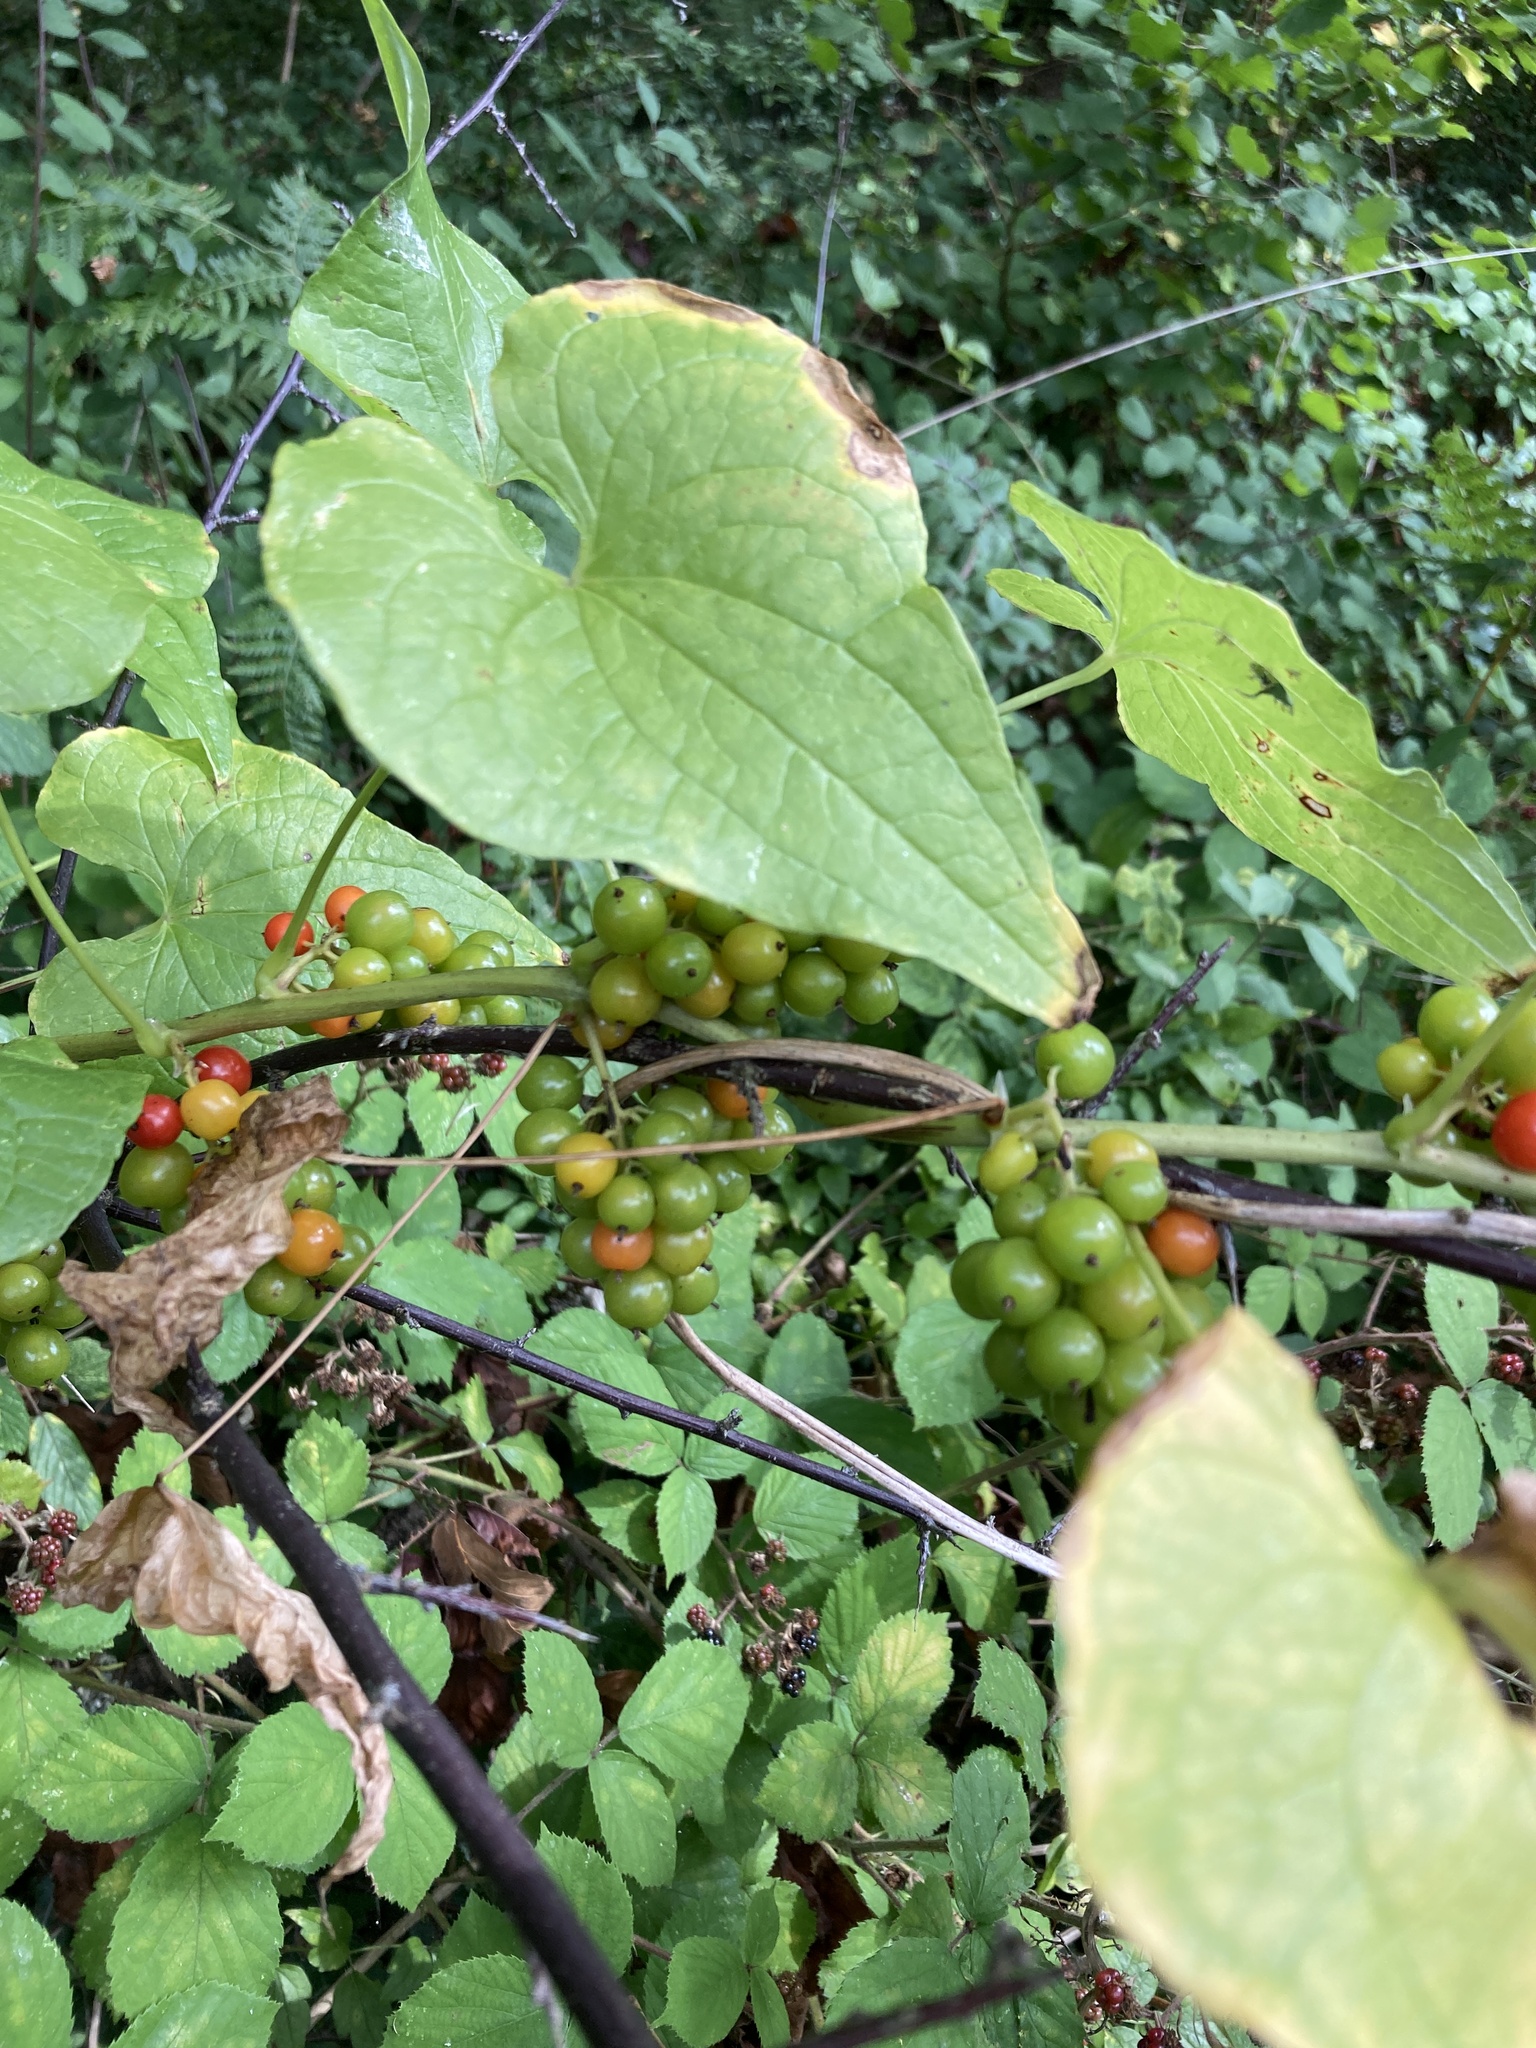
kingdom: Plantae
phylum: Tracheophyta
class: Liliopsida
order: Dioscoreales
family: Dioscoreaceae
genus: Dioscorea
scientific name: Dioscorea communis
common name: Black-bindweed
